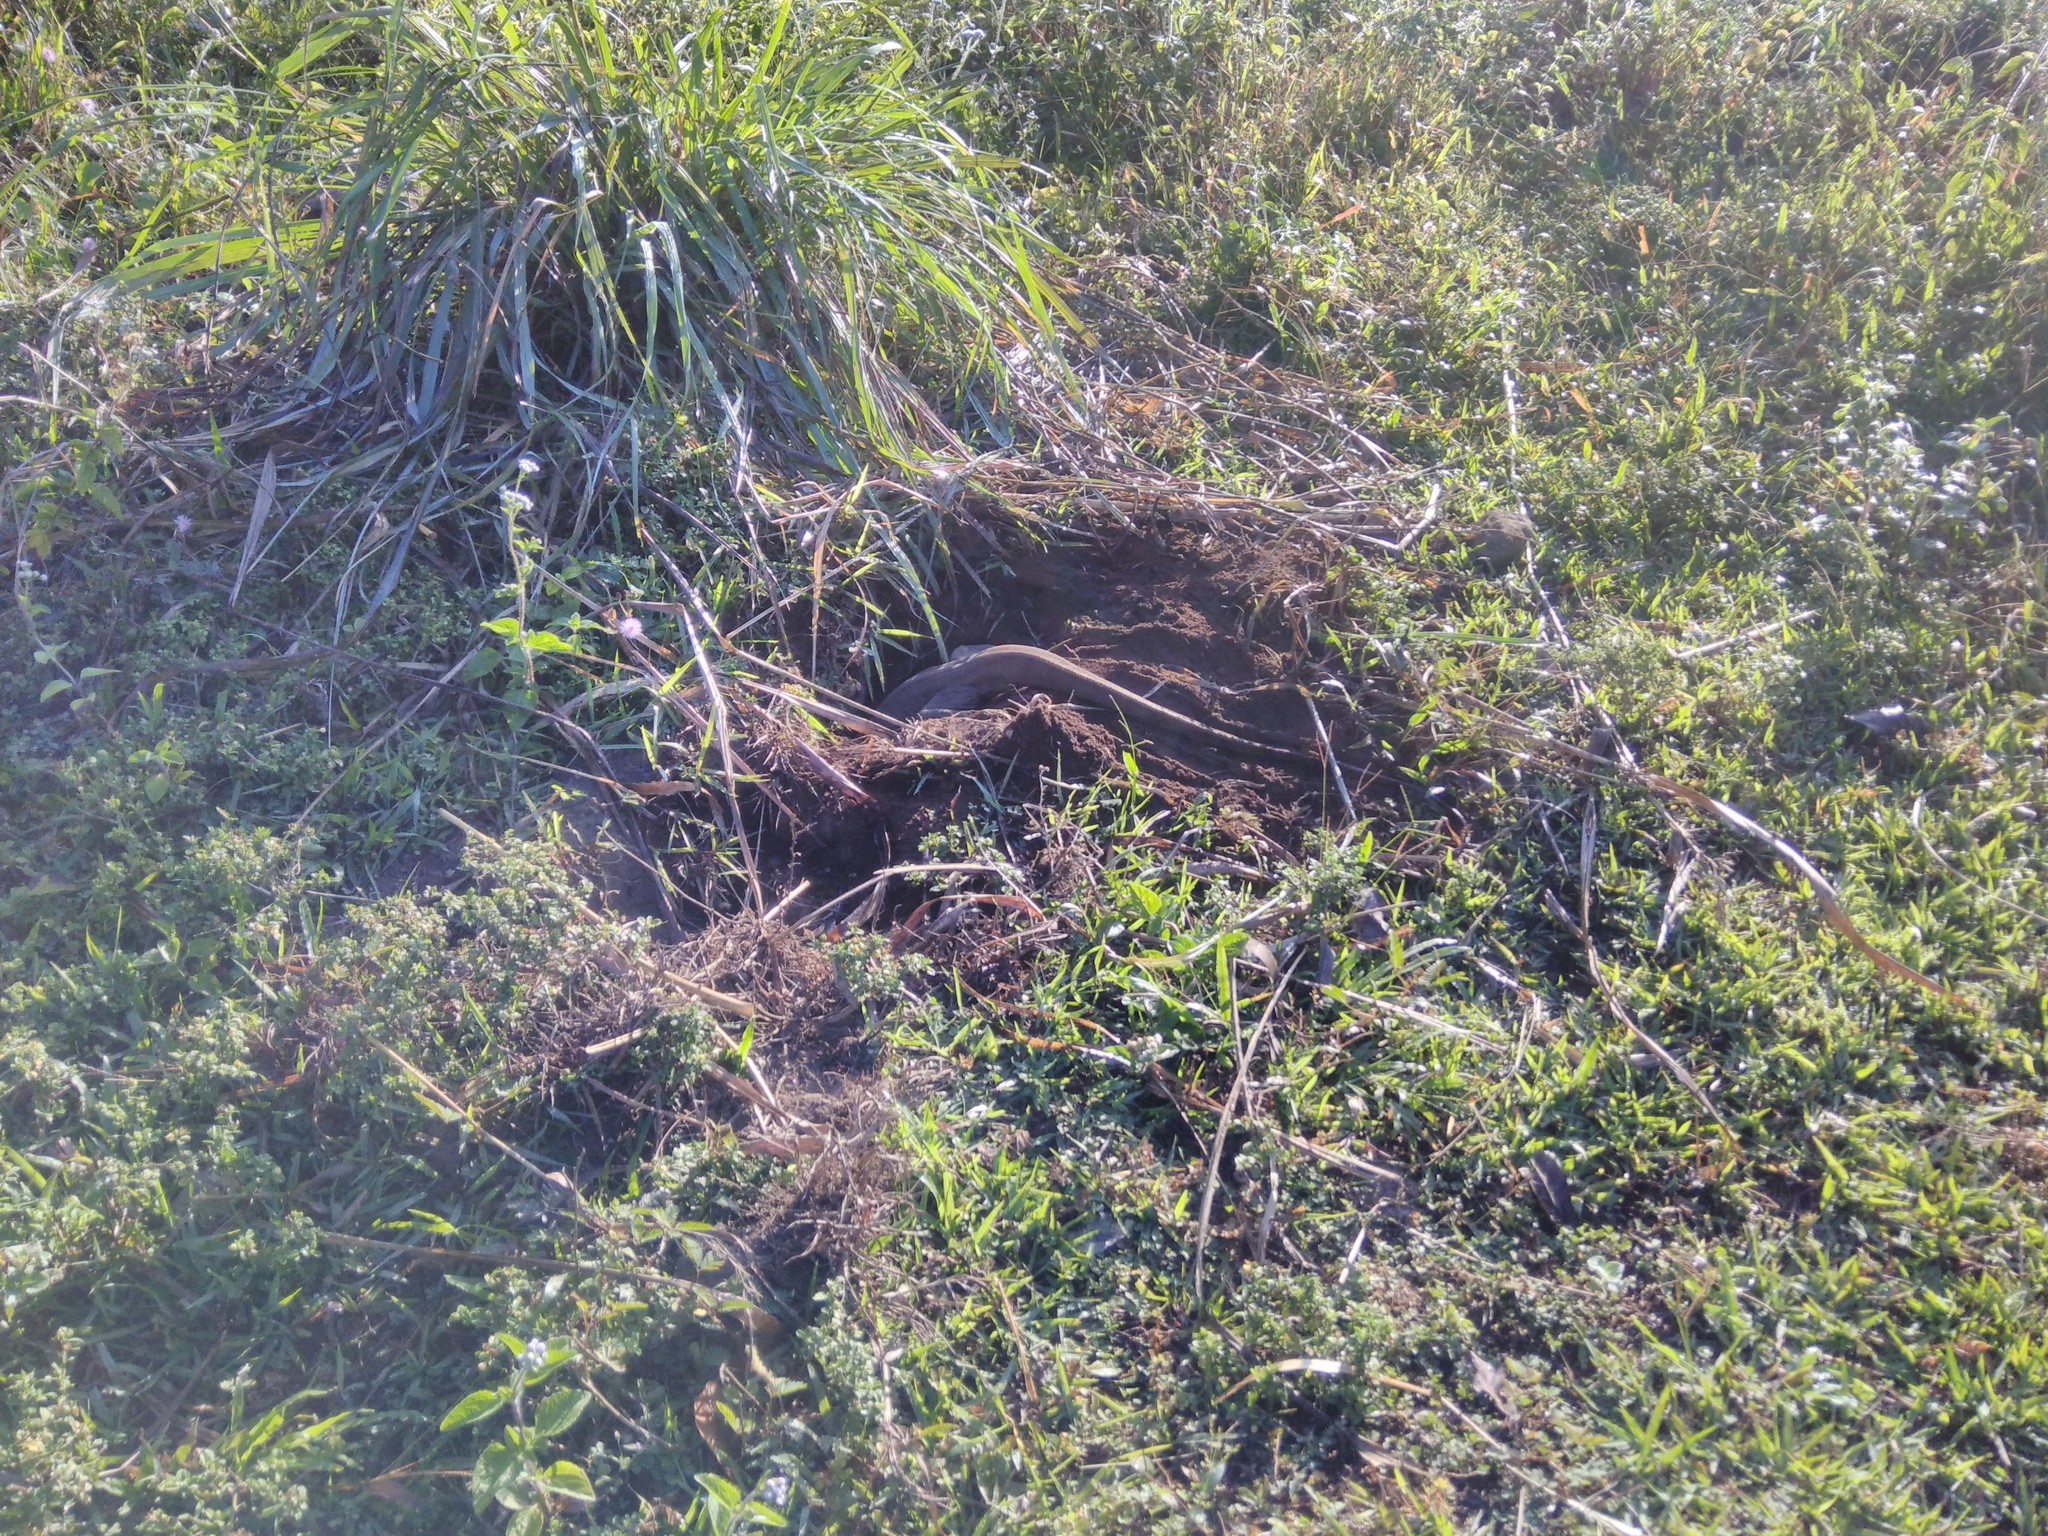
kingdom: Animalia
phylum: Chordata
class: Squamata
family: Varanidae
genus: Varanus
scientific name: Varanus bengalensis
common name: Bengal monitor
